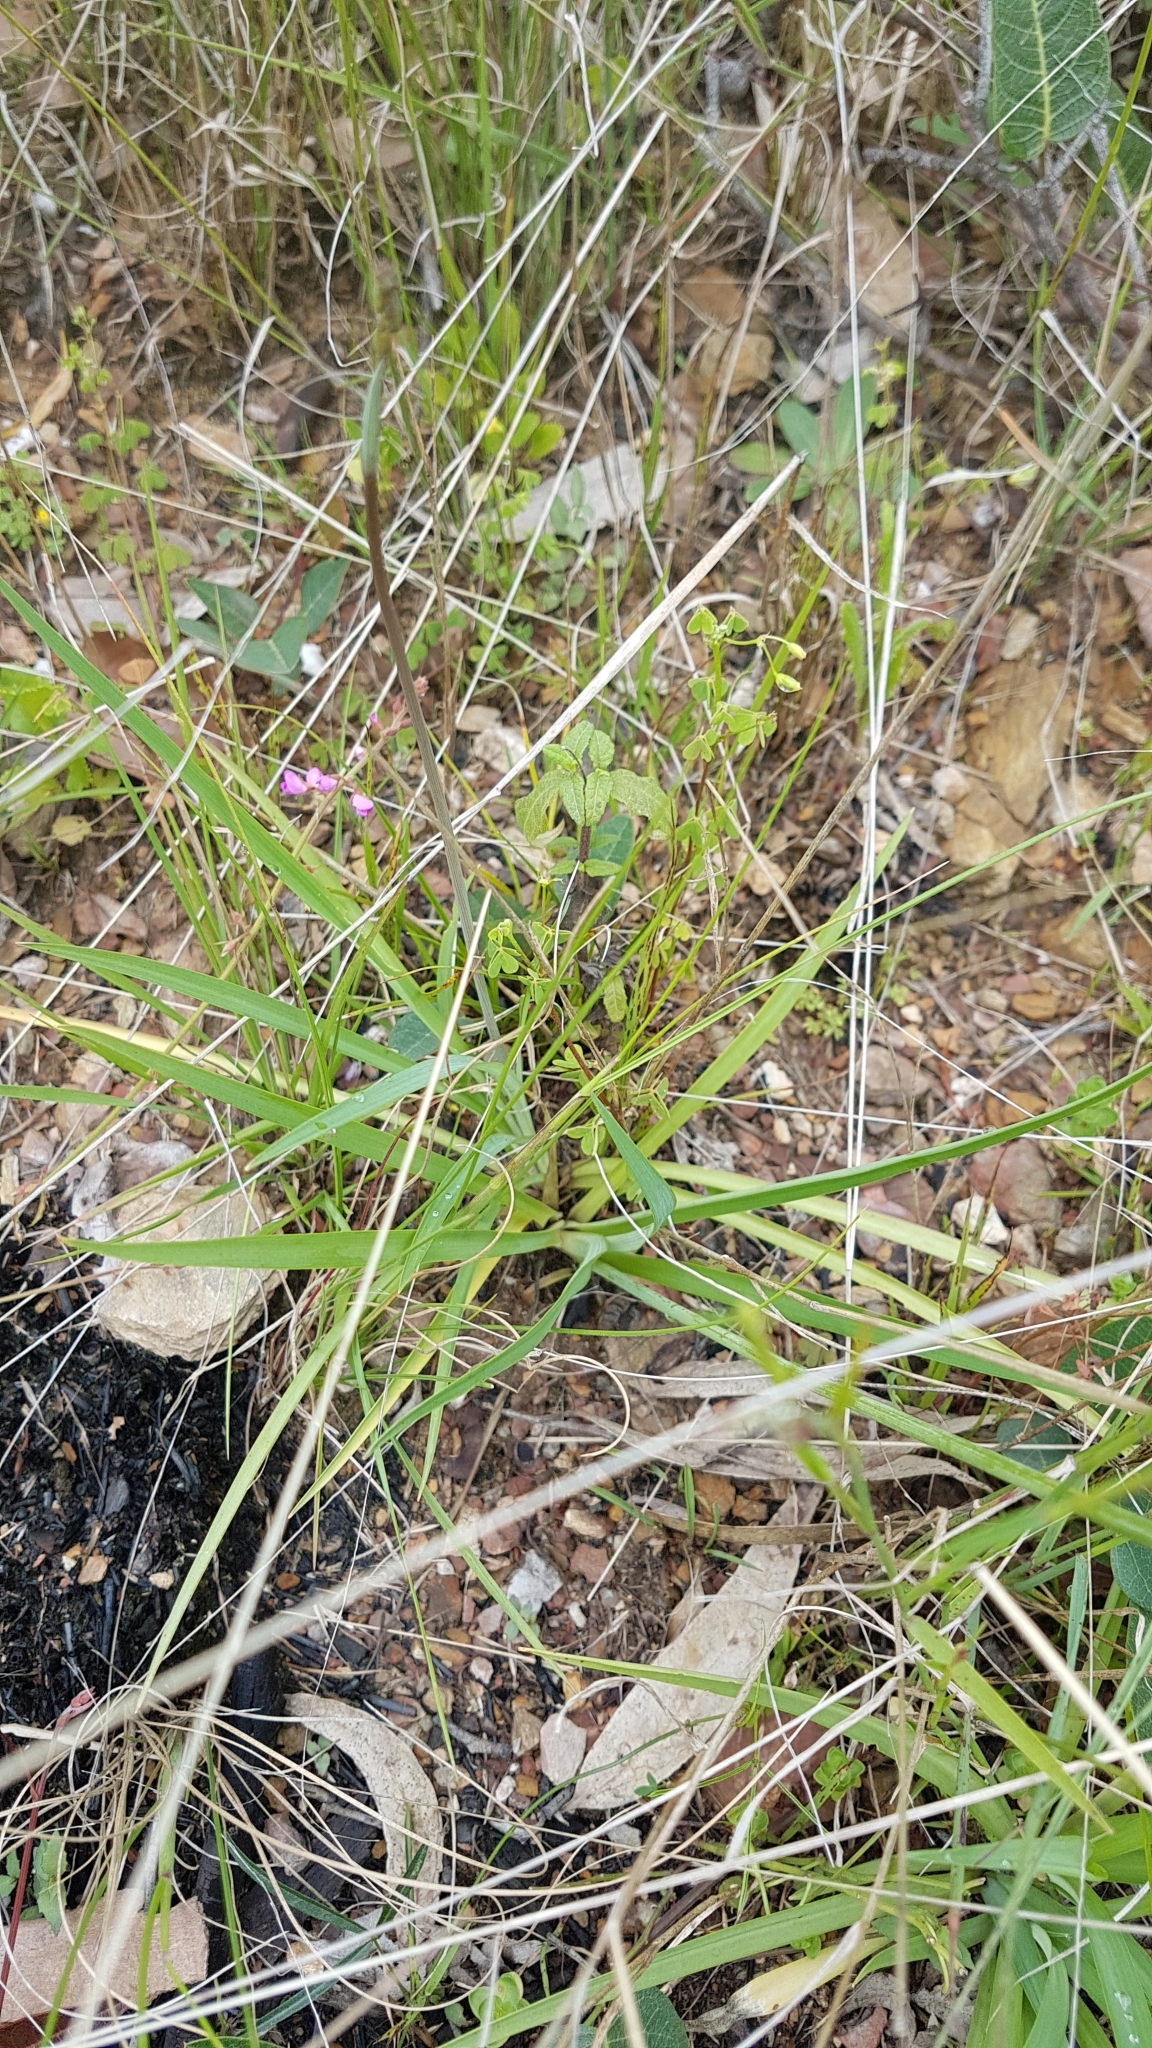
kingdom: Plantae
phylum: Tracheophyta
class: Liliopsida
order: Asparagales
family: Asparagaceae
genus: Arthropodium
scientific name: Arthropodium milleflorum
